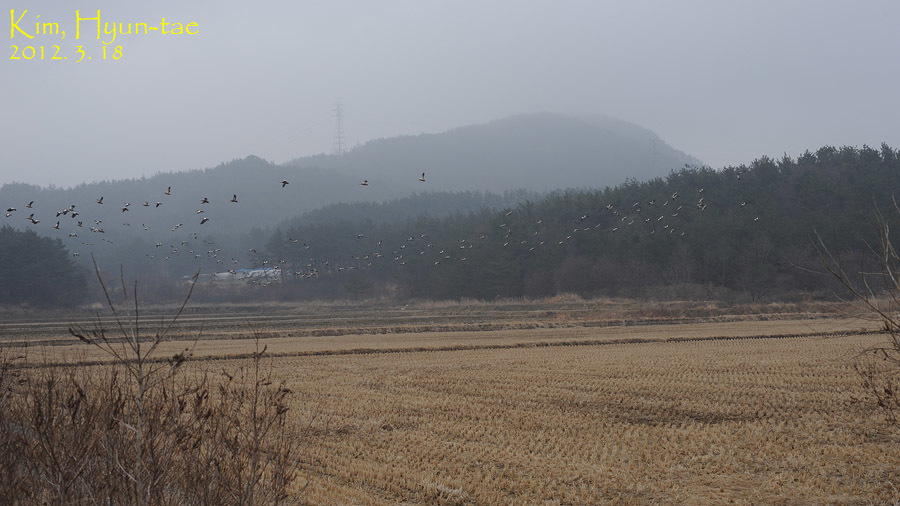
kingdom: Animalia
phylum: Chordata
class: Aves
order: Anseriformes
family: Anatidae
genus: Tadorna
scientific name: Tadorna ferruginea
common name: Ruddy shelduck
